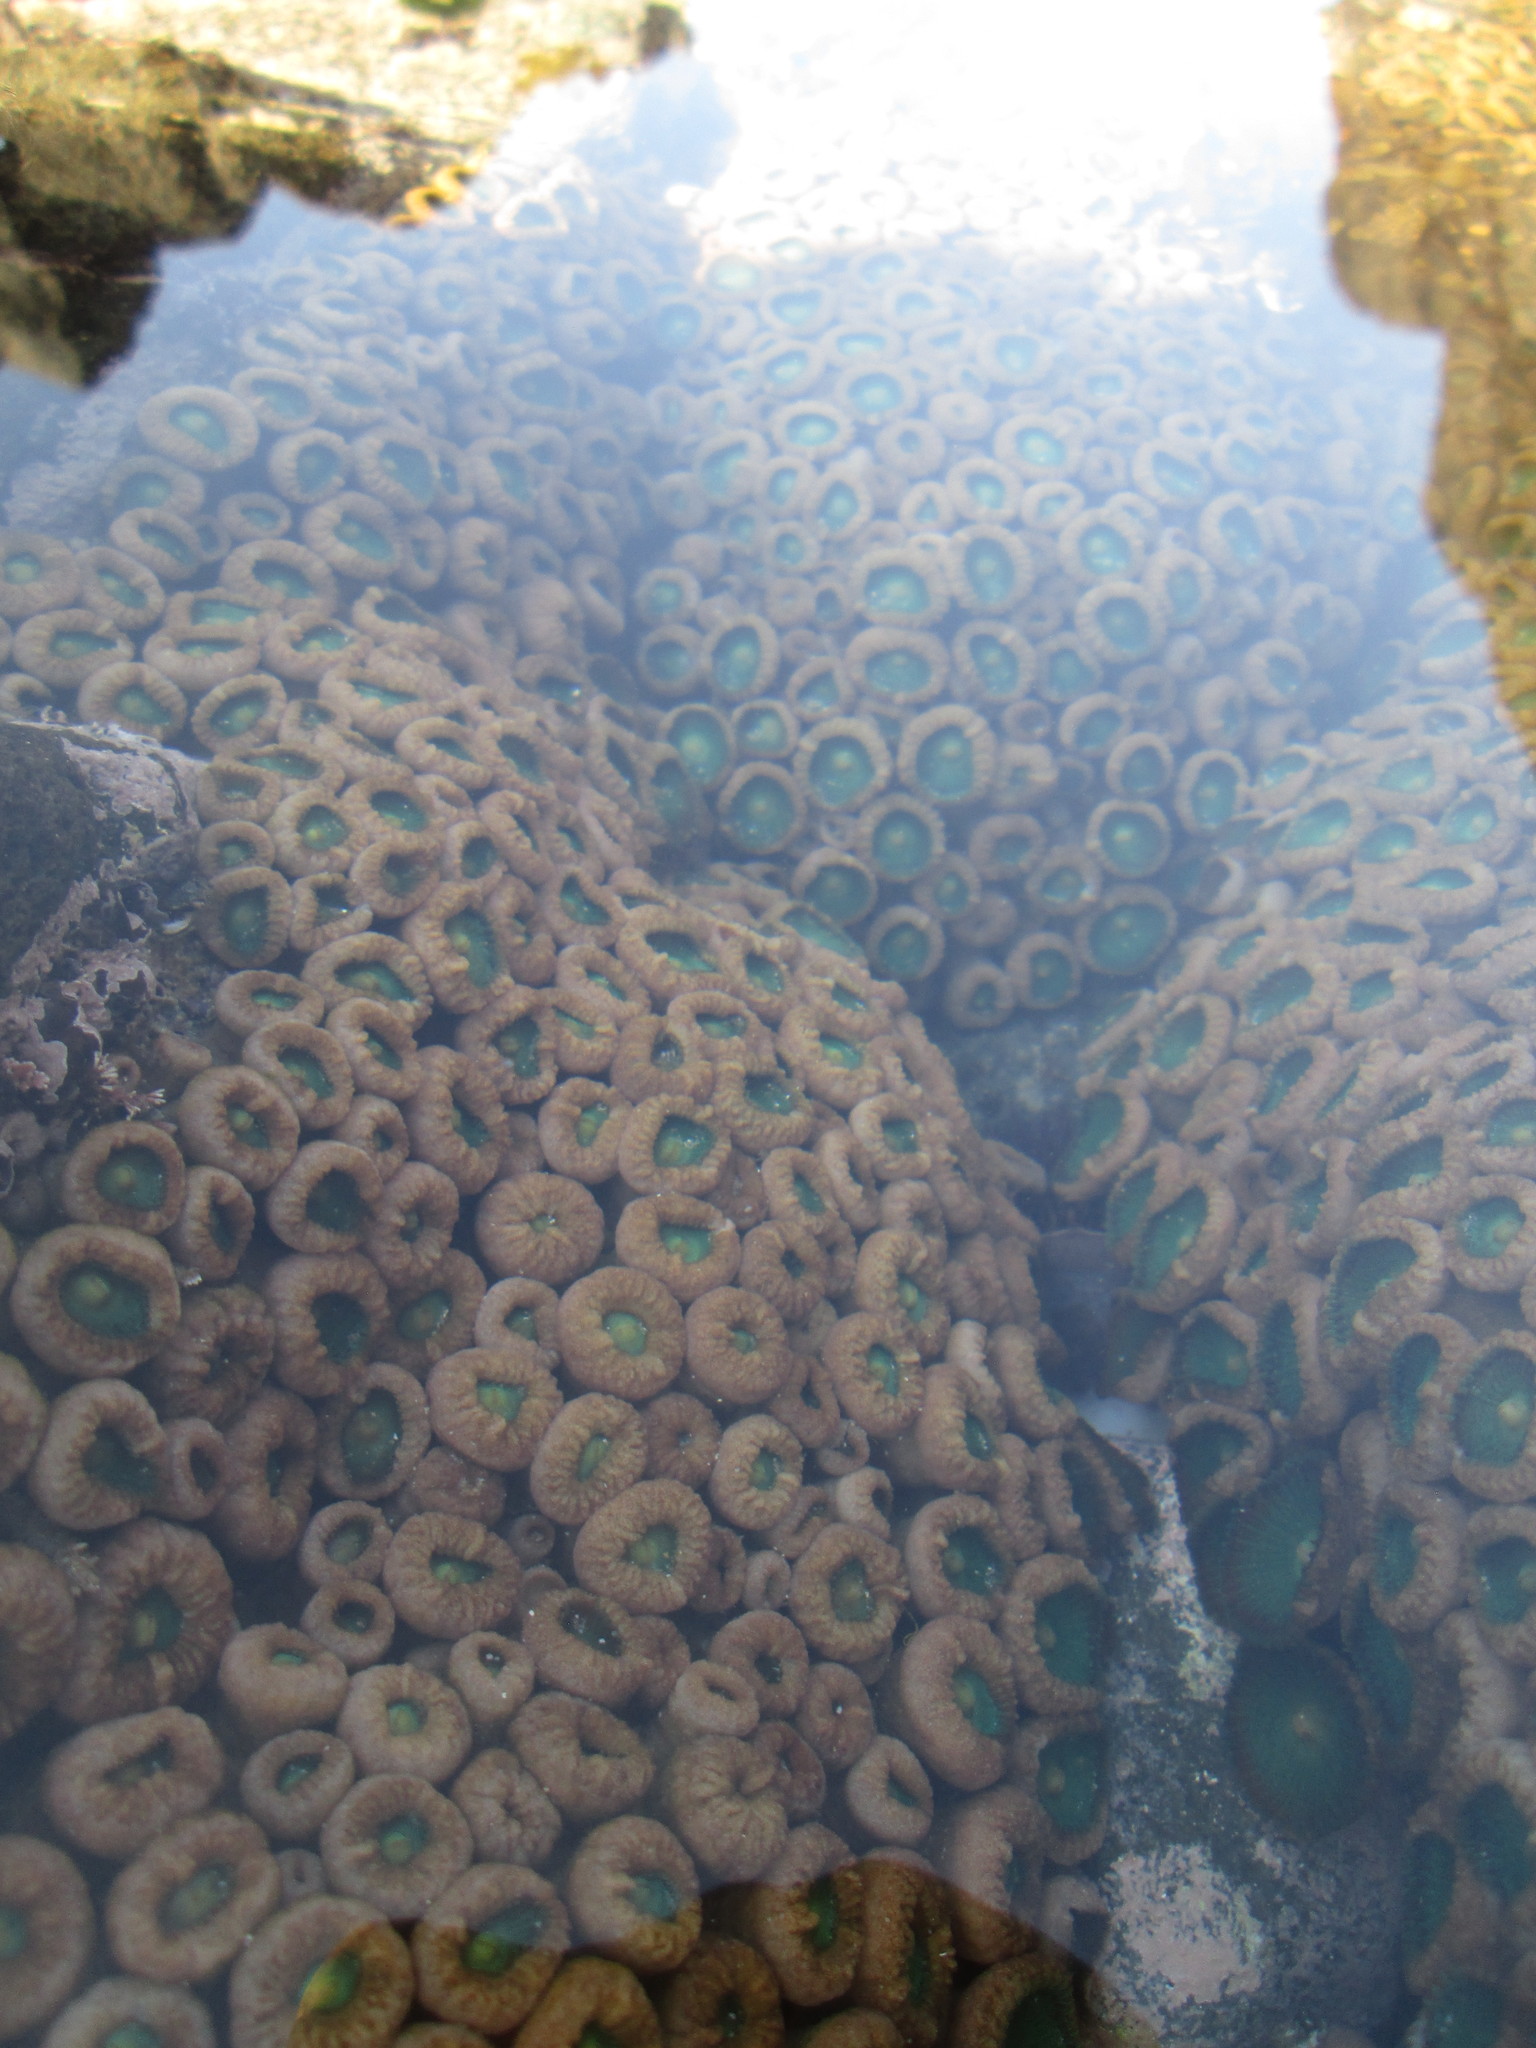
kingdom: Animalia
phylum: Cnidaria
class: Anthozoa
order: Zoantharia
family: Sphenopidae
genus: Palythoa
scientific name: Palythoa mutuki
